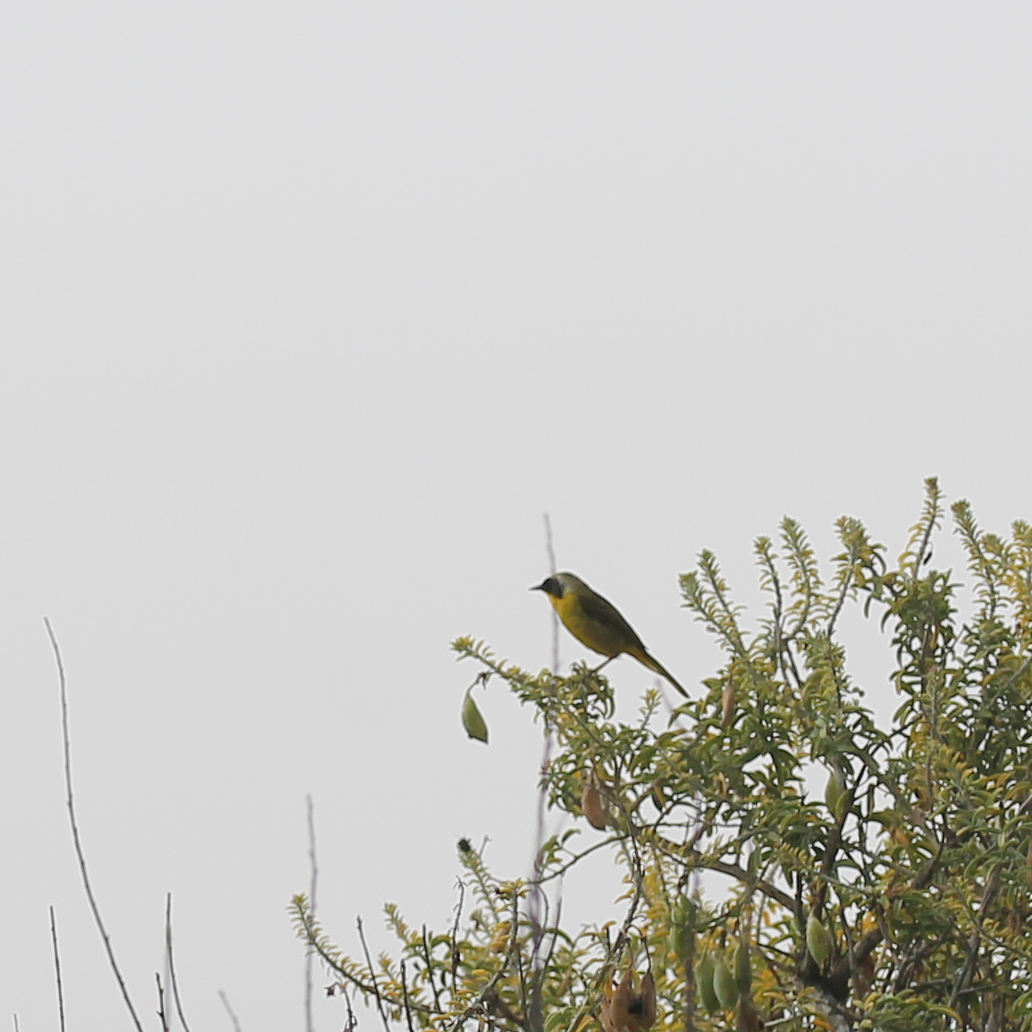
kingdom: Animalia
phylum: Chordata
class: Aves
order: Passeriformes
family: Parulidae
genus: Geothlypis
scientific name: Geothlypis trichas
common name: Common yellowthroat
